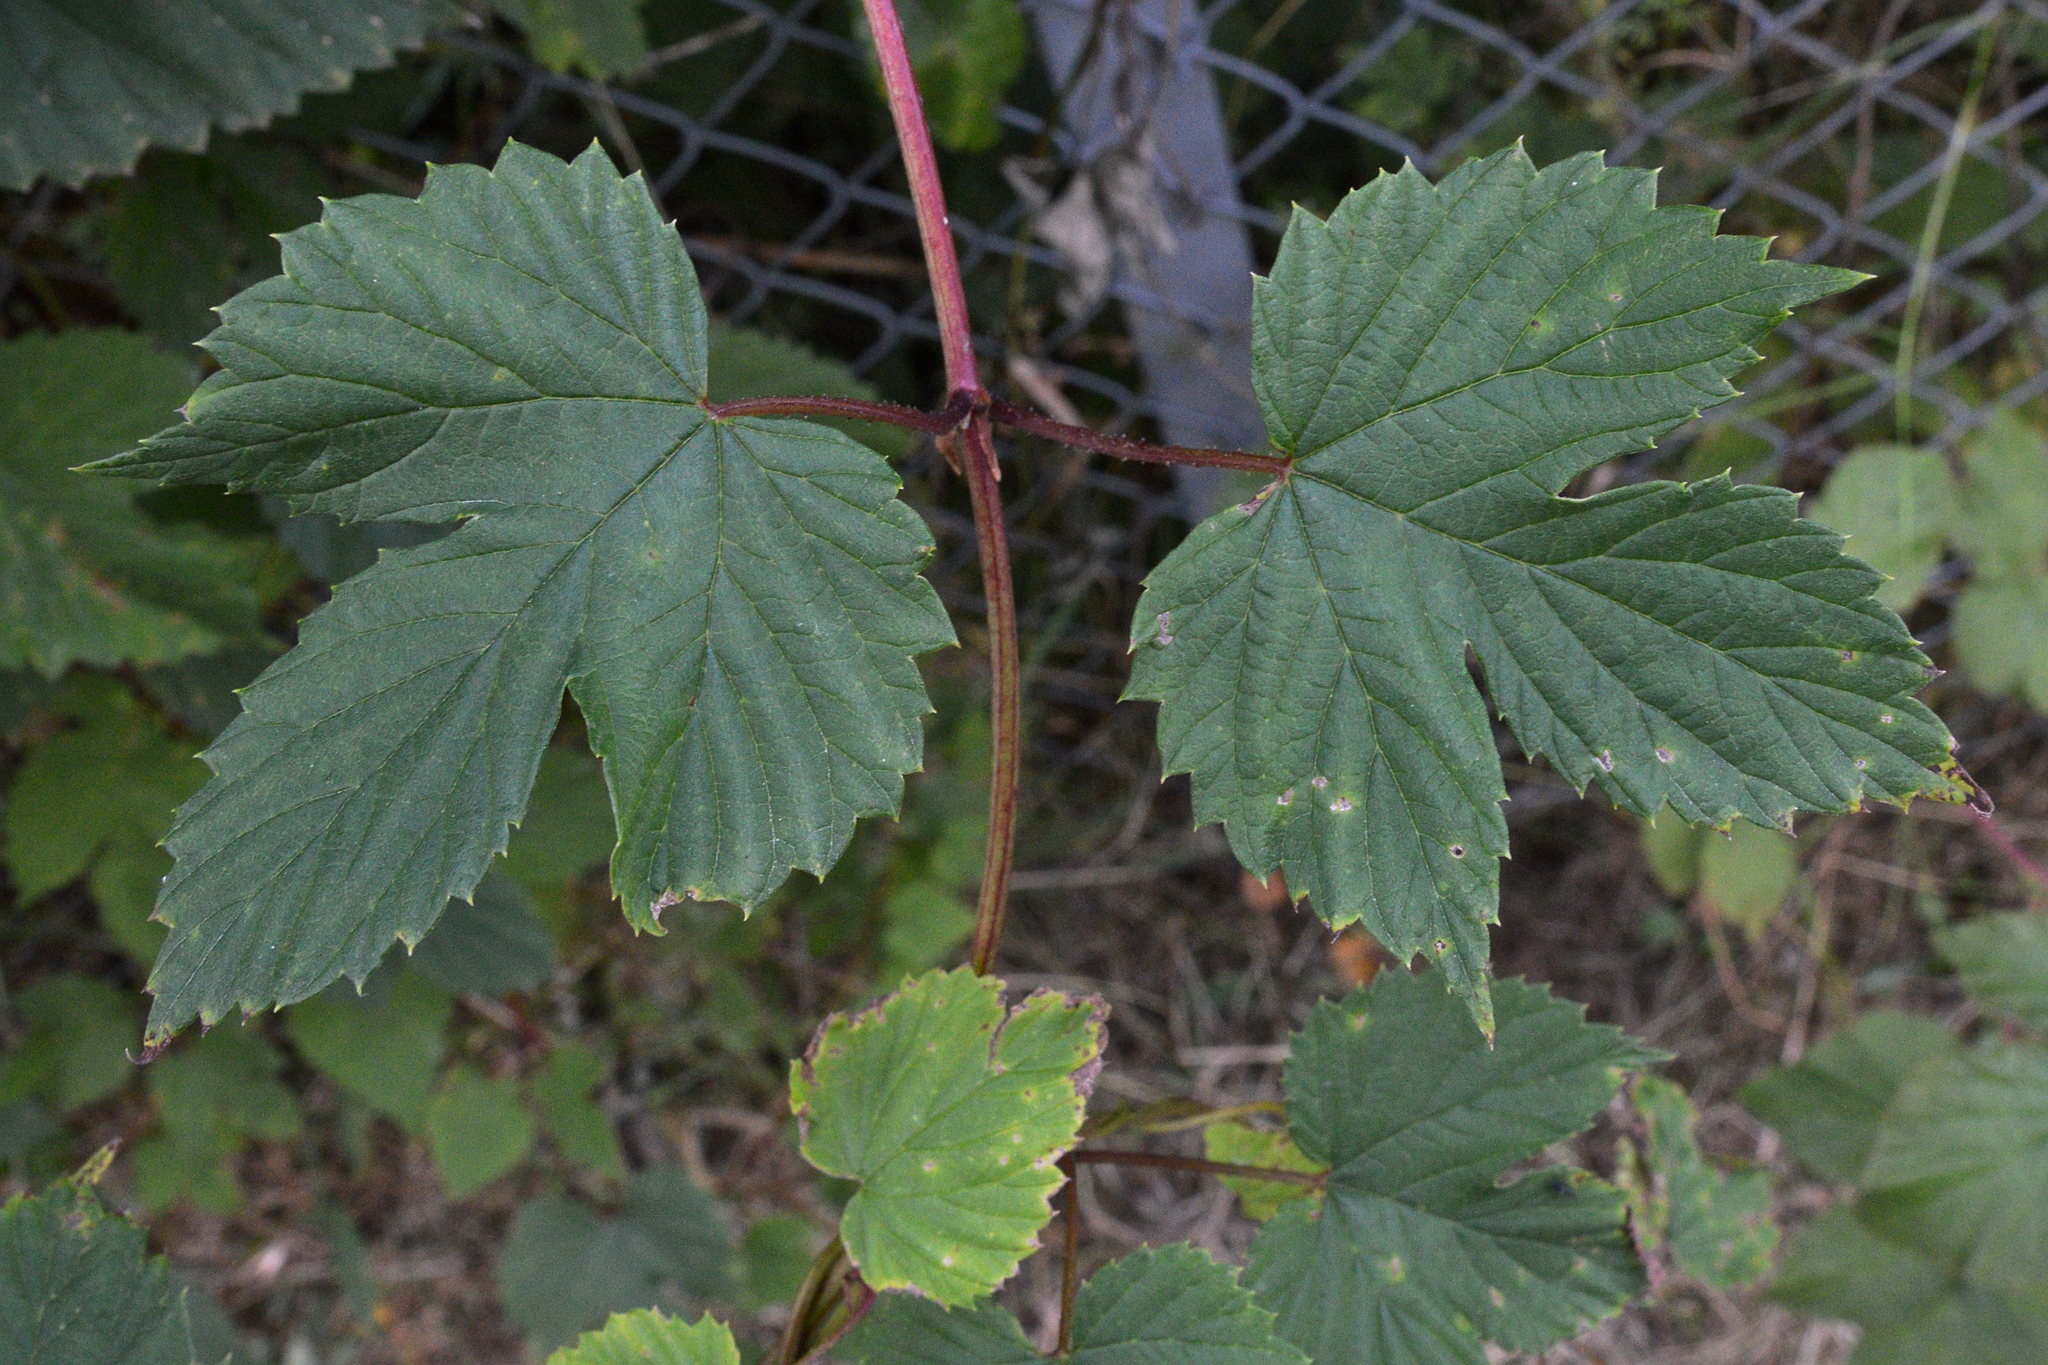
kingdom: Plantae
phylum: Tracheophyta
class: Magnoliopsida
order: Rosales
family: Cannabaceae
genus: Humulus
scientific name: Humulus lupulus
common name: Hop
